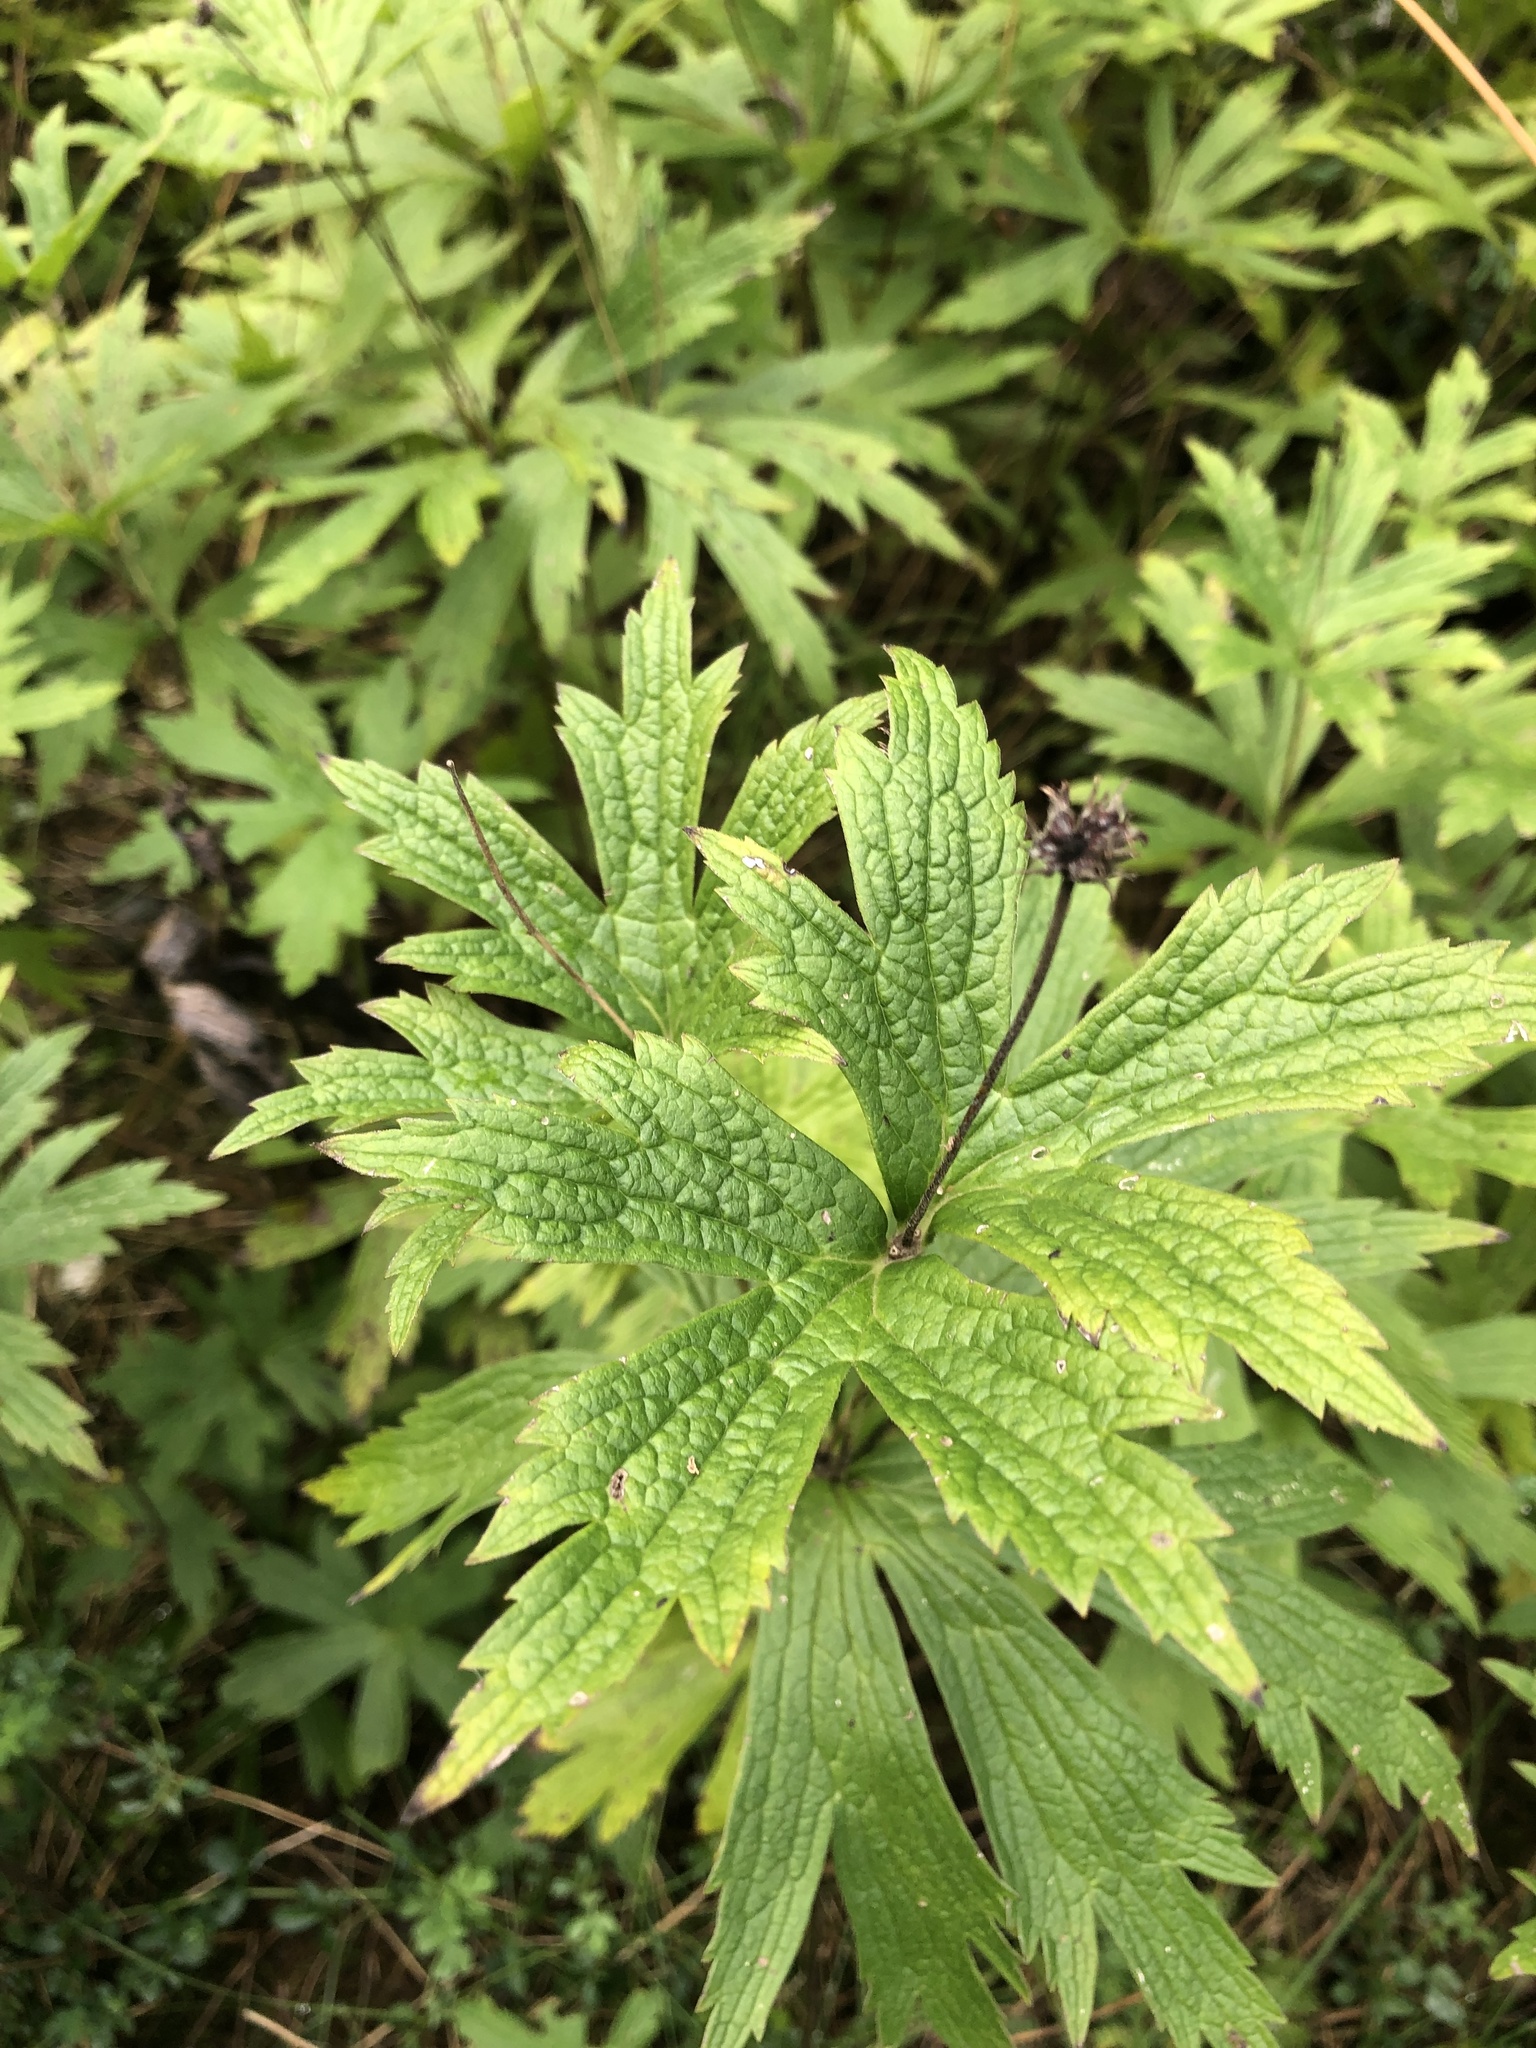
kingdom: Plantae
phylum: Tracheophyta
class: Magnoliopsida
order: Ranunculales
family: Ranunculaceae
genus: Anemonastrum
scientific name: Anemonastrum canadense
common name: Canada anemone
